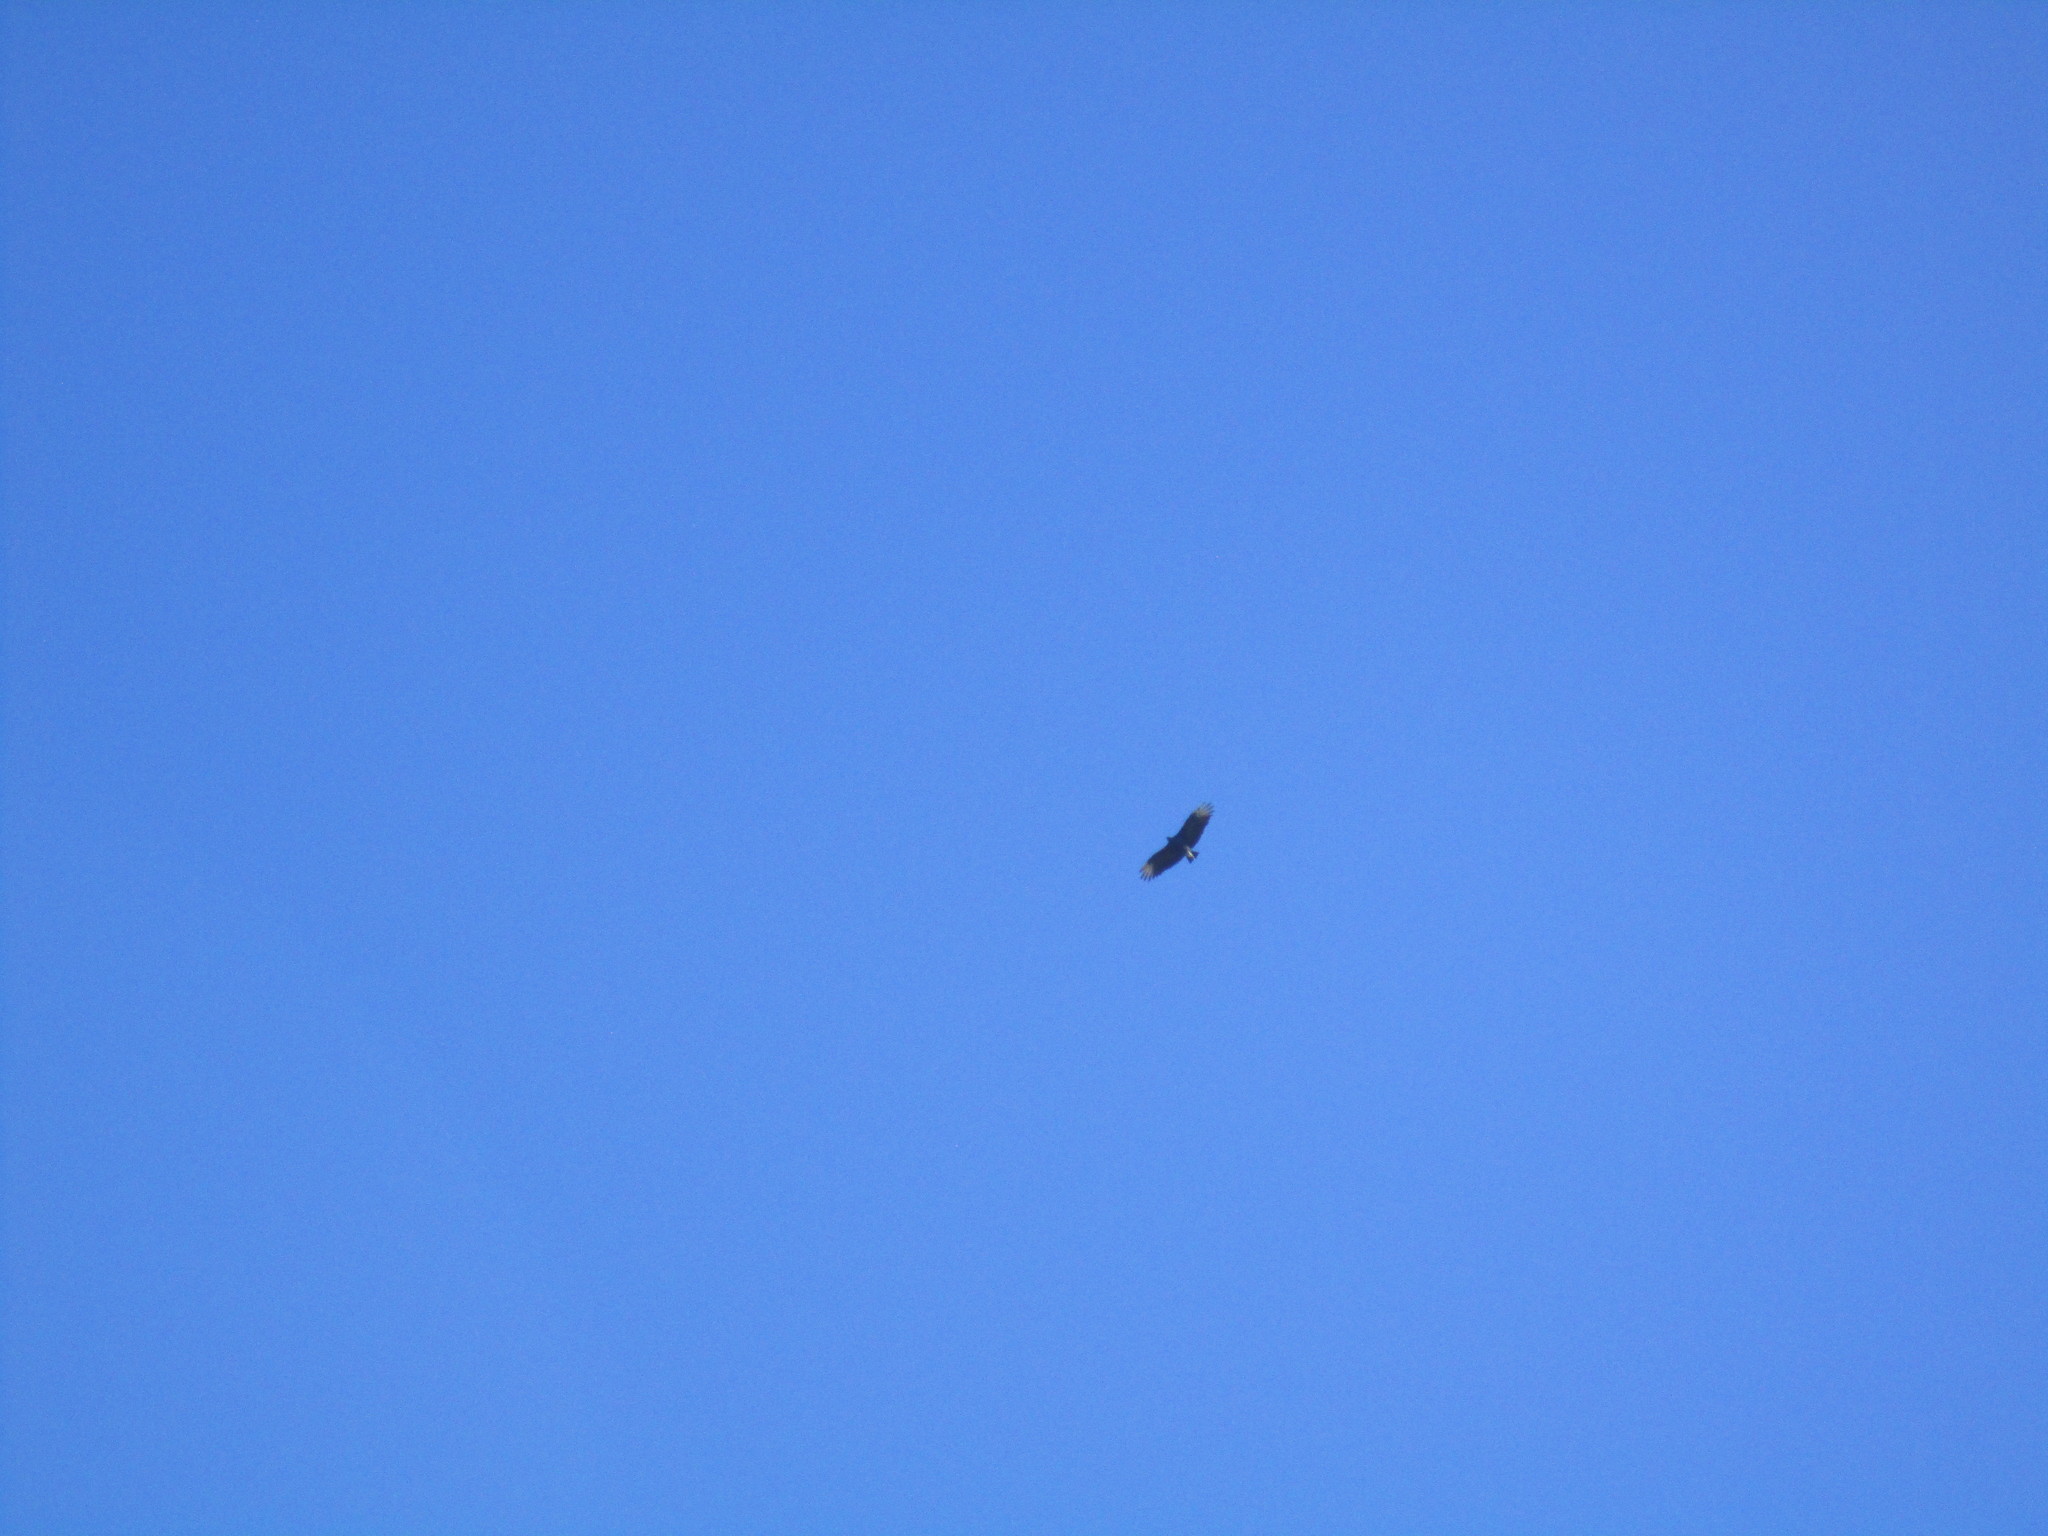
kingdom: Animalia
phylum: Chordata
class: Aves
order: Accipitriformes
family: Cathartidae
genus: Coragyps
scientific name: Coragyps atratus
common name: Black vulture
